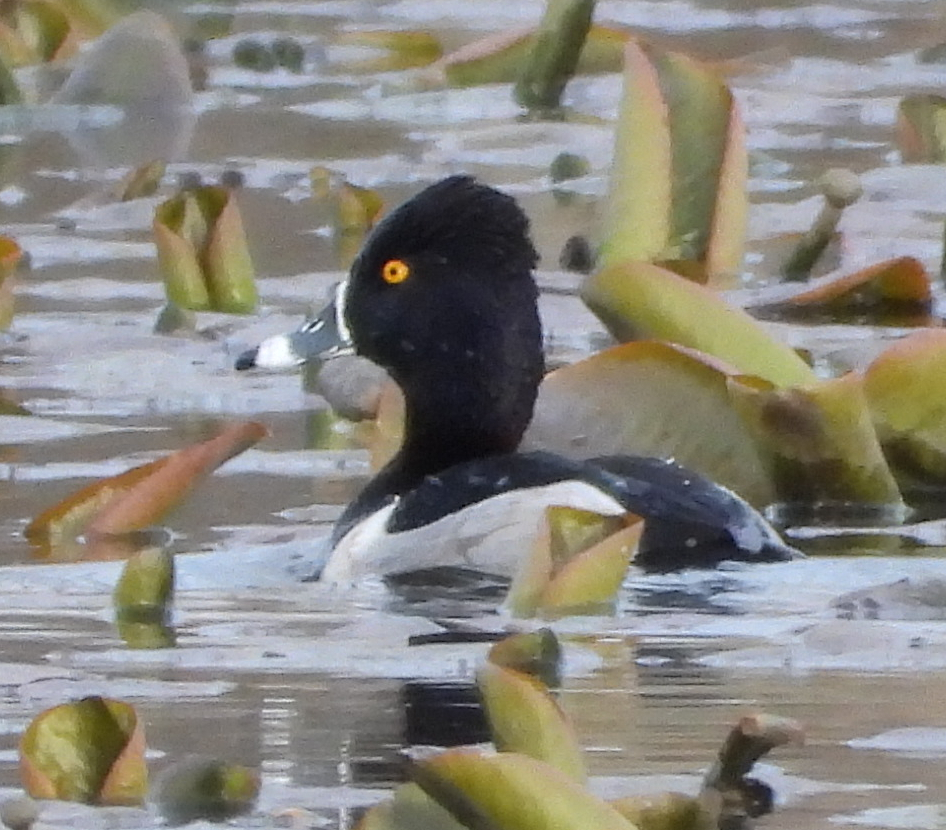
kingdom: Animalia
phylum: Chordata
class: Aves
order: Anseriformes
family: Anatidae
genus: Aythya
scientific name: Aythya collaris
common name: Ring-necked duck
